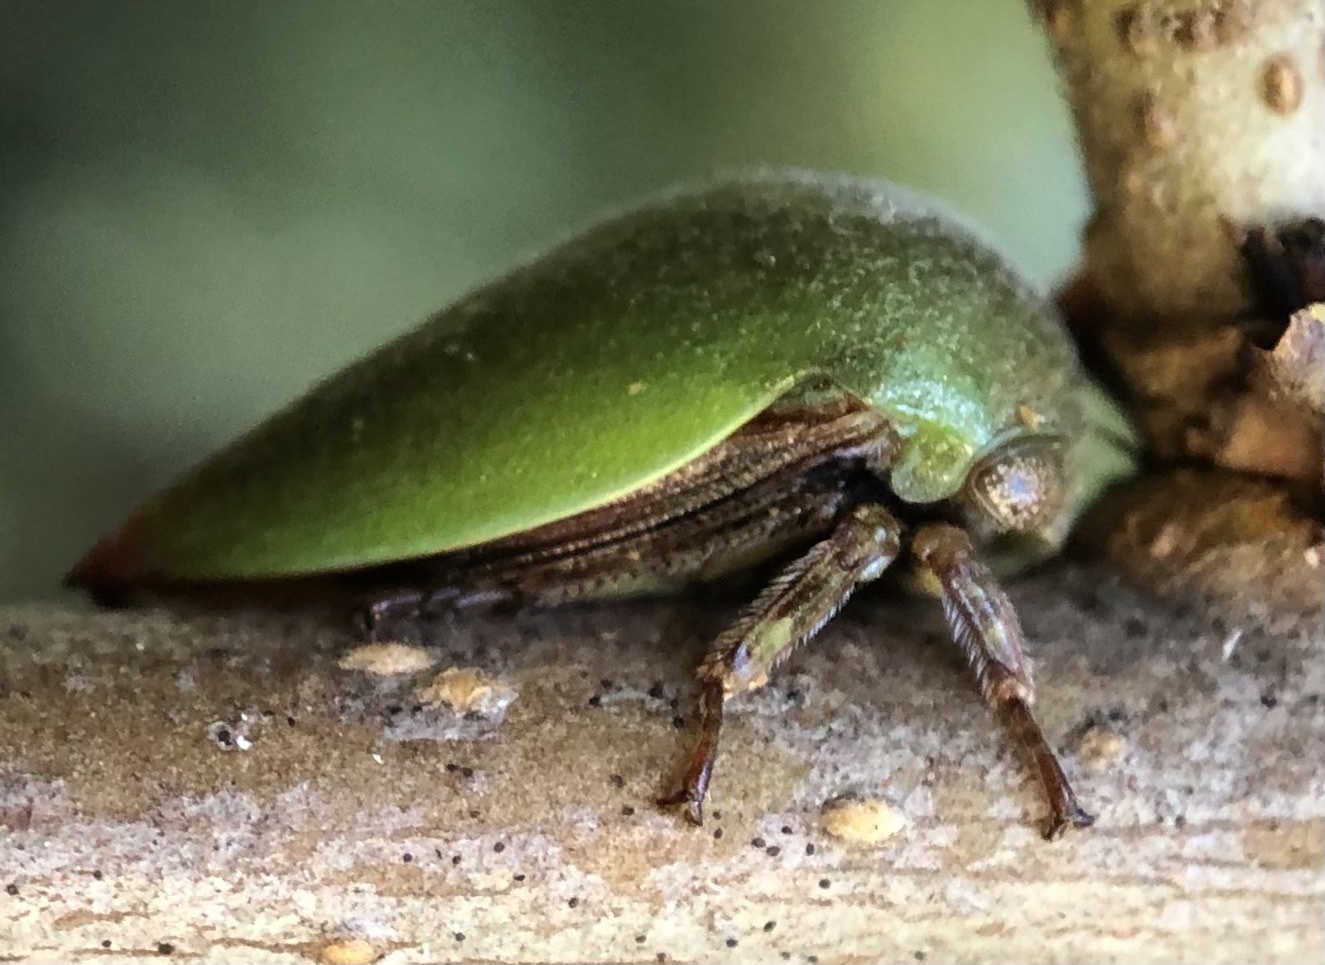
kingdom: Animalia
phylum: Arthropoda
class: Insecta
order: Hemiptera
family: Membracidae
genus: Hebetica
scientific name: Hebetica
